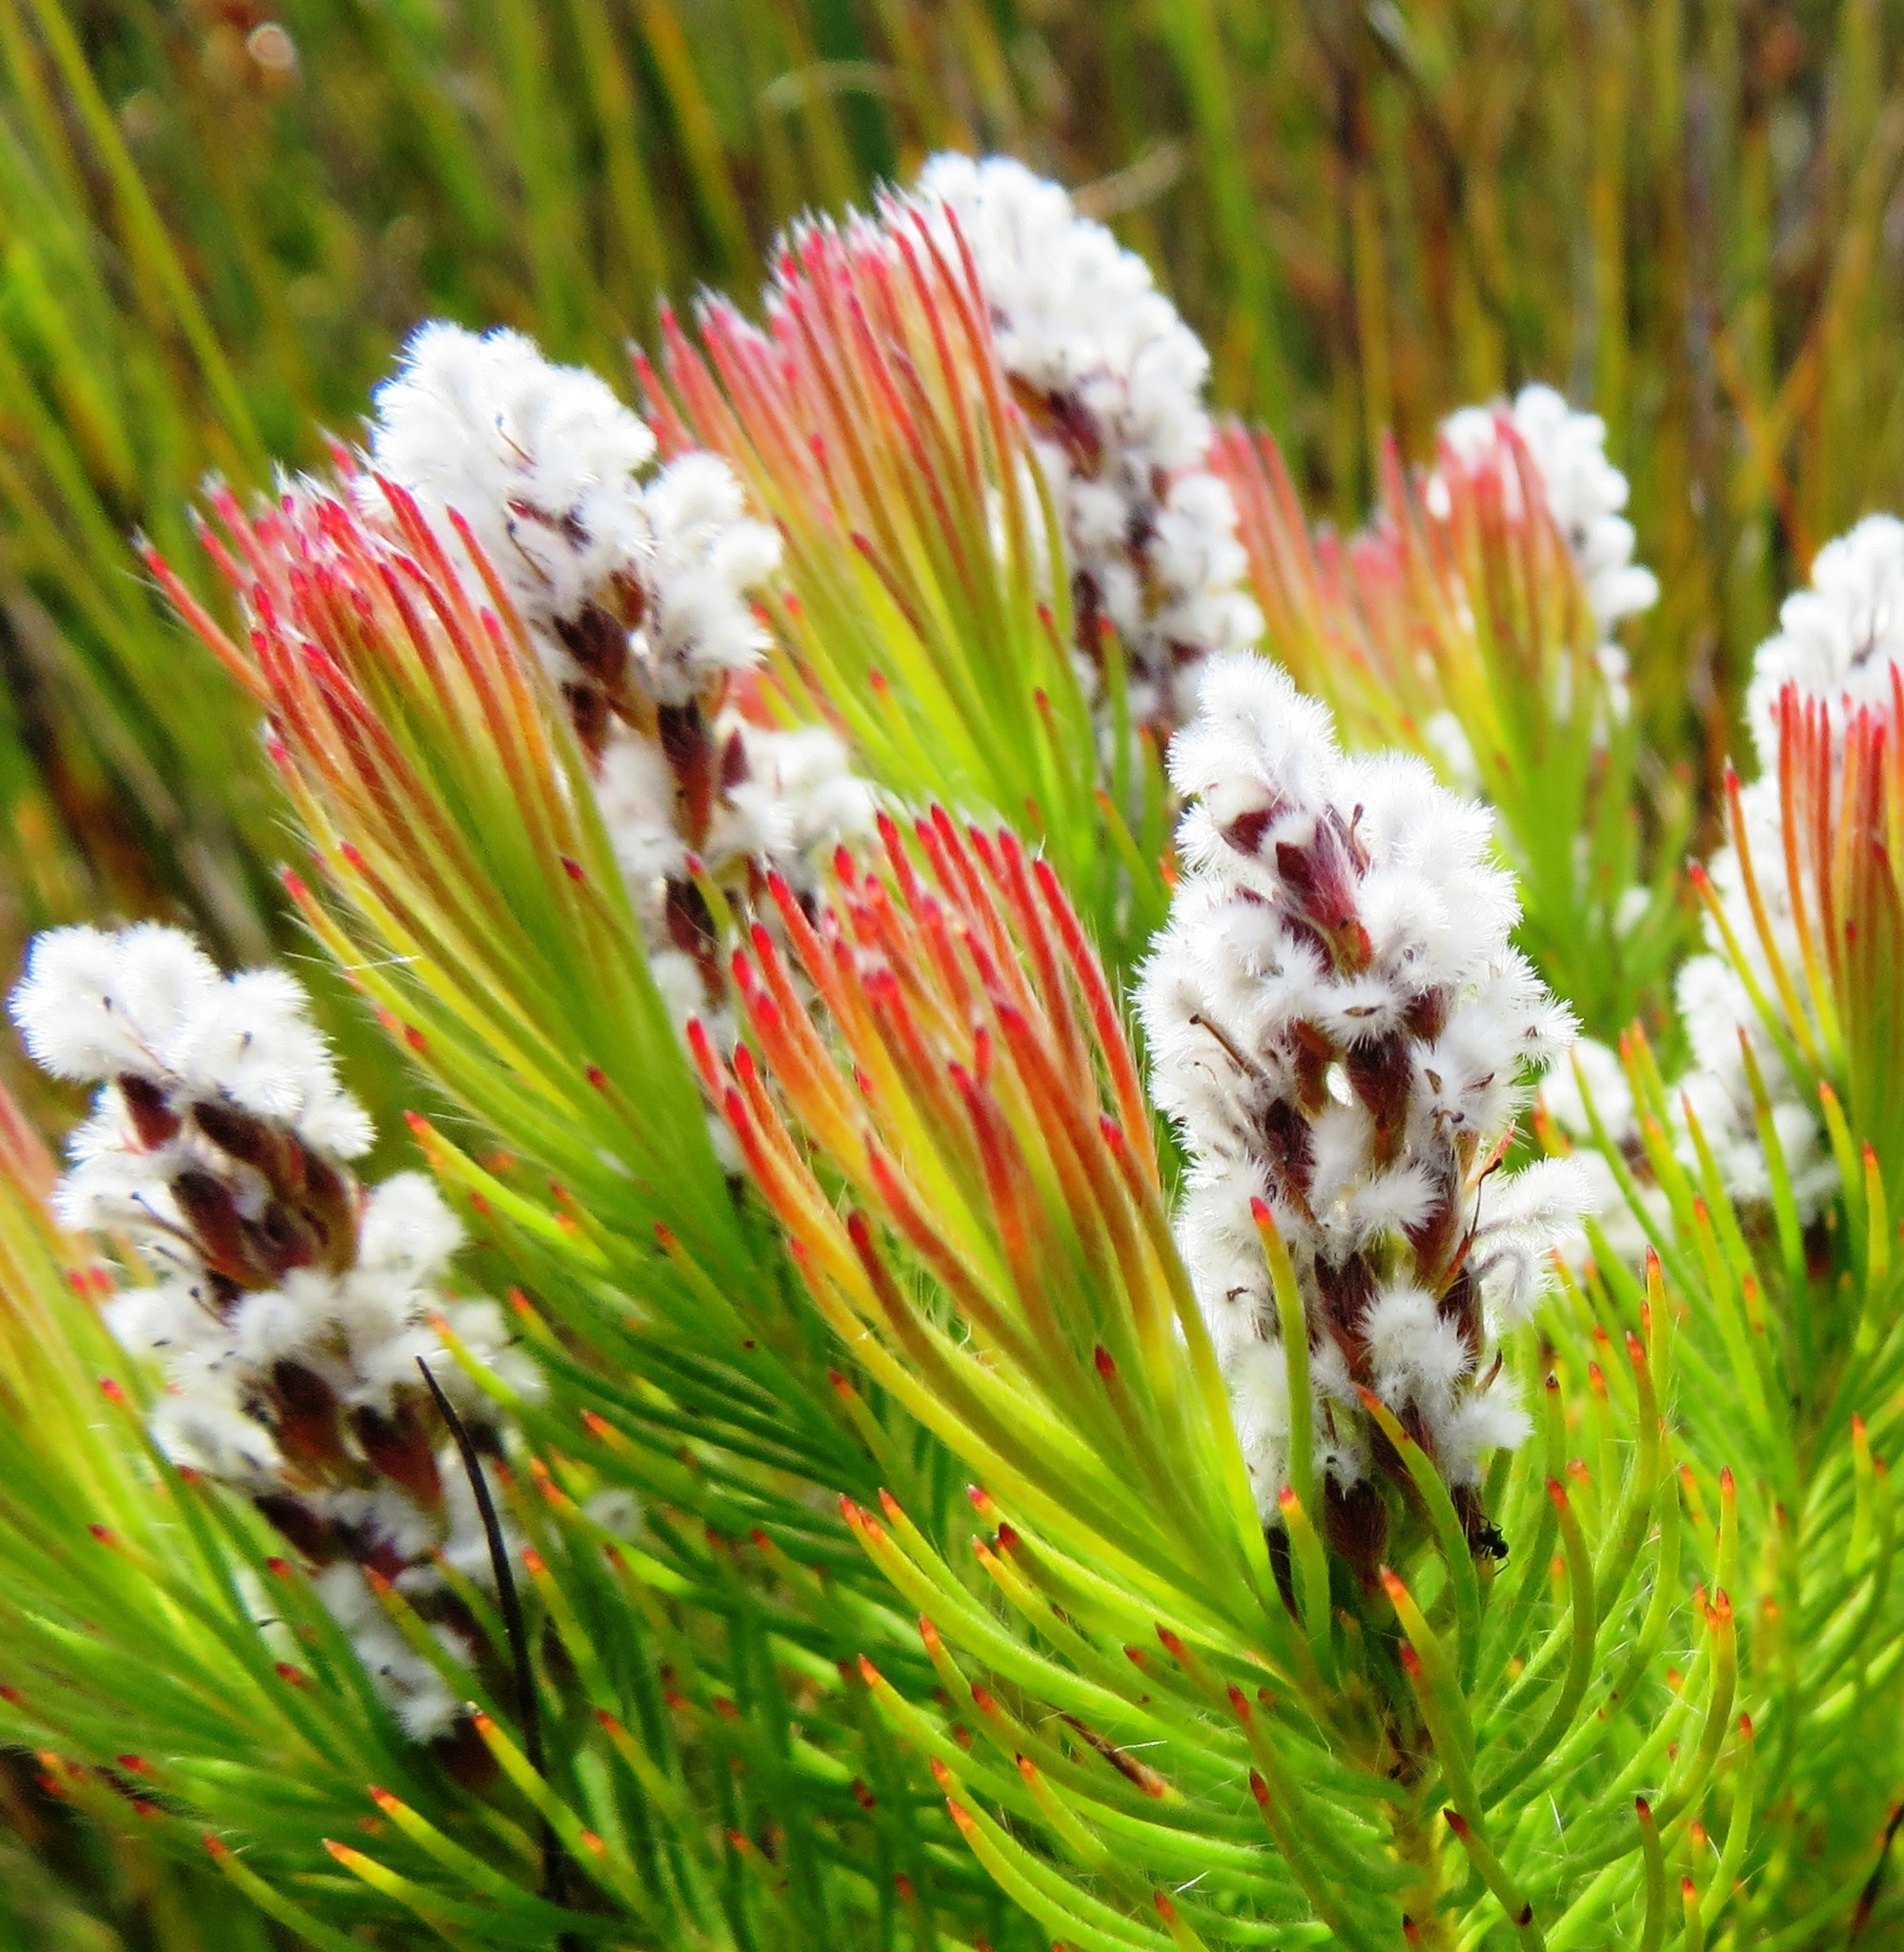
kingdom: Plantae
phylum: Tracheophyta
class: Magnoliopsida
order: Proteales
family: Proteaceae
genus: Spatalla
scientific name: Spatalla mollis
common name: Woolly spoon
